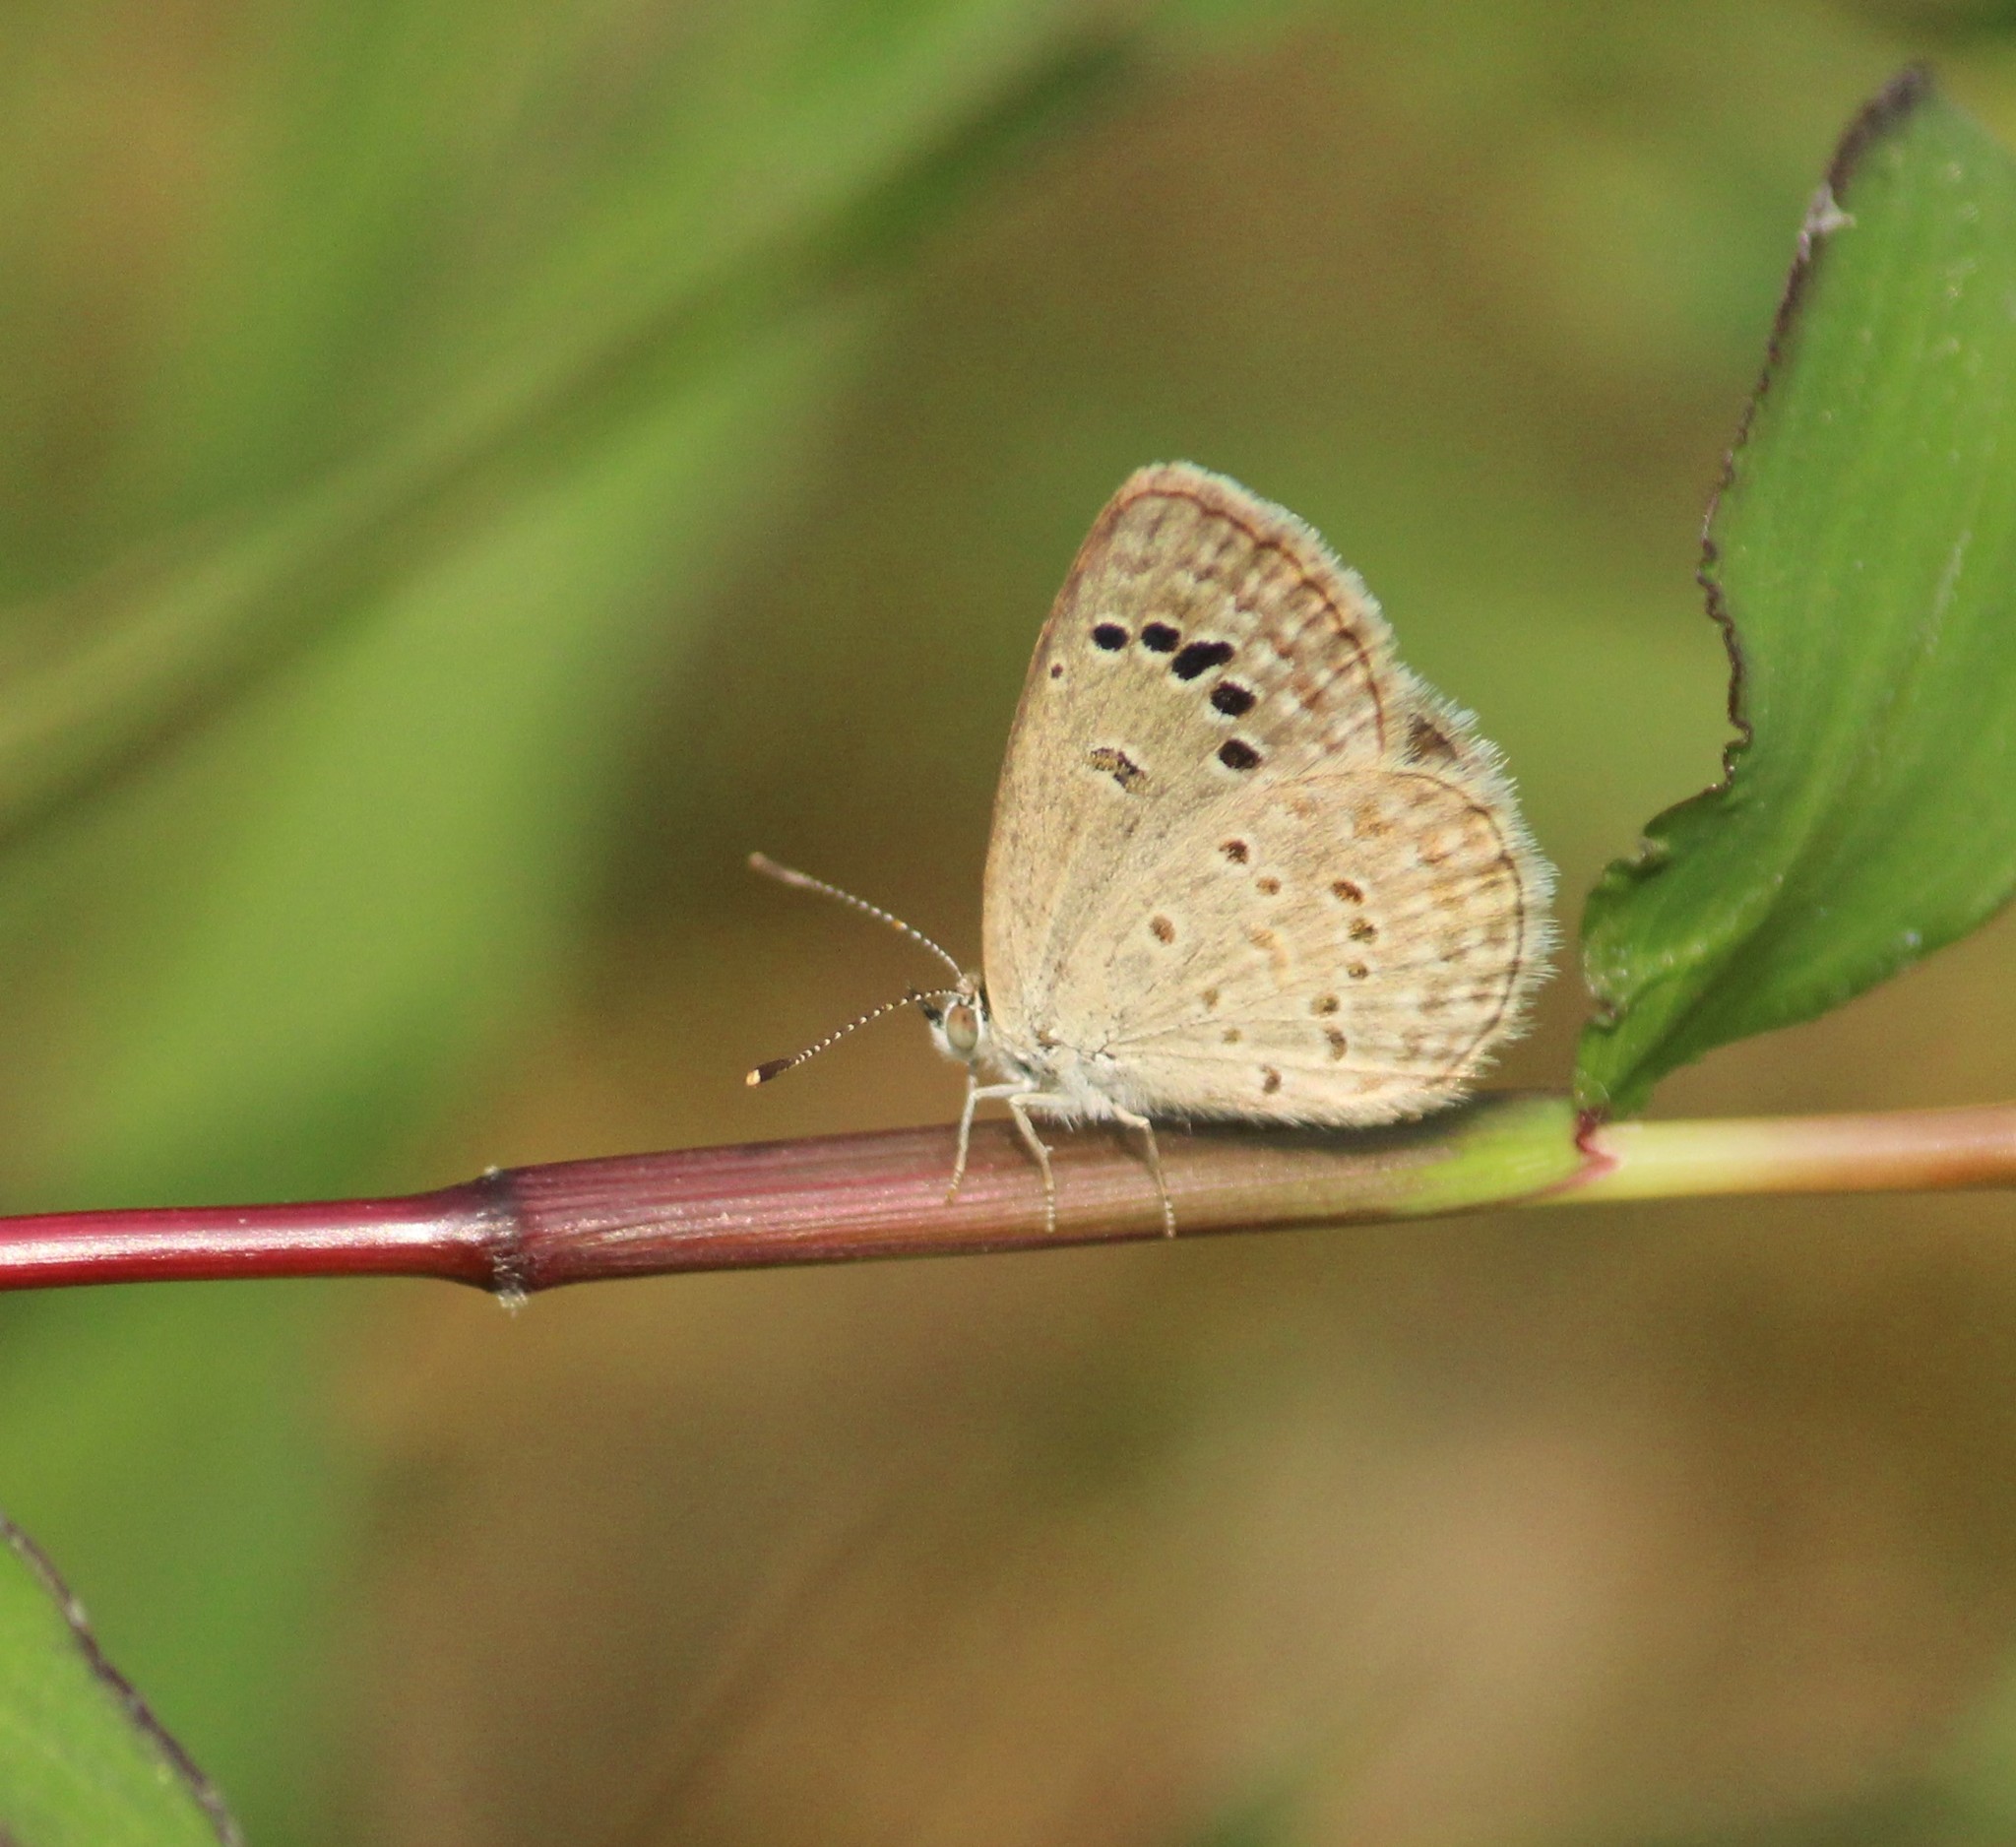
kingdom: Animalia
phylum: Arthropoda
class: Insecta
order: Lepidoptera
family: Lycaenidae
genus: Zizina
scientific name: Zizina otis
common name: Lesser grass blue
